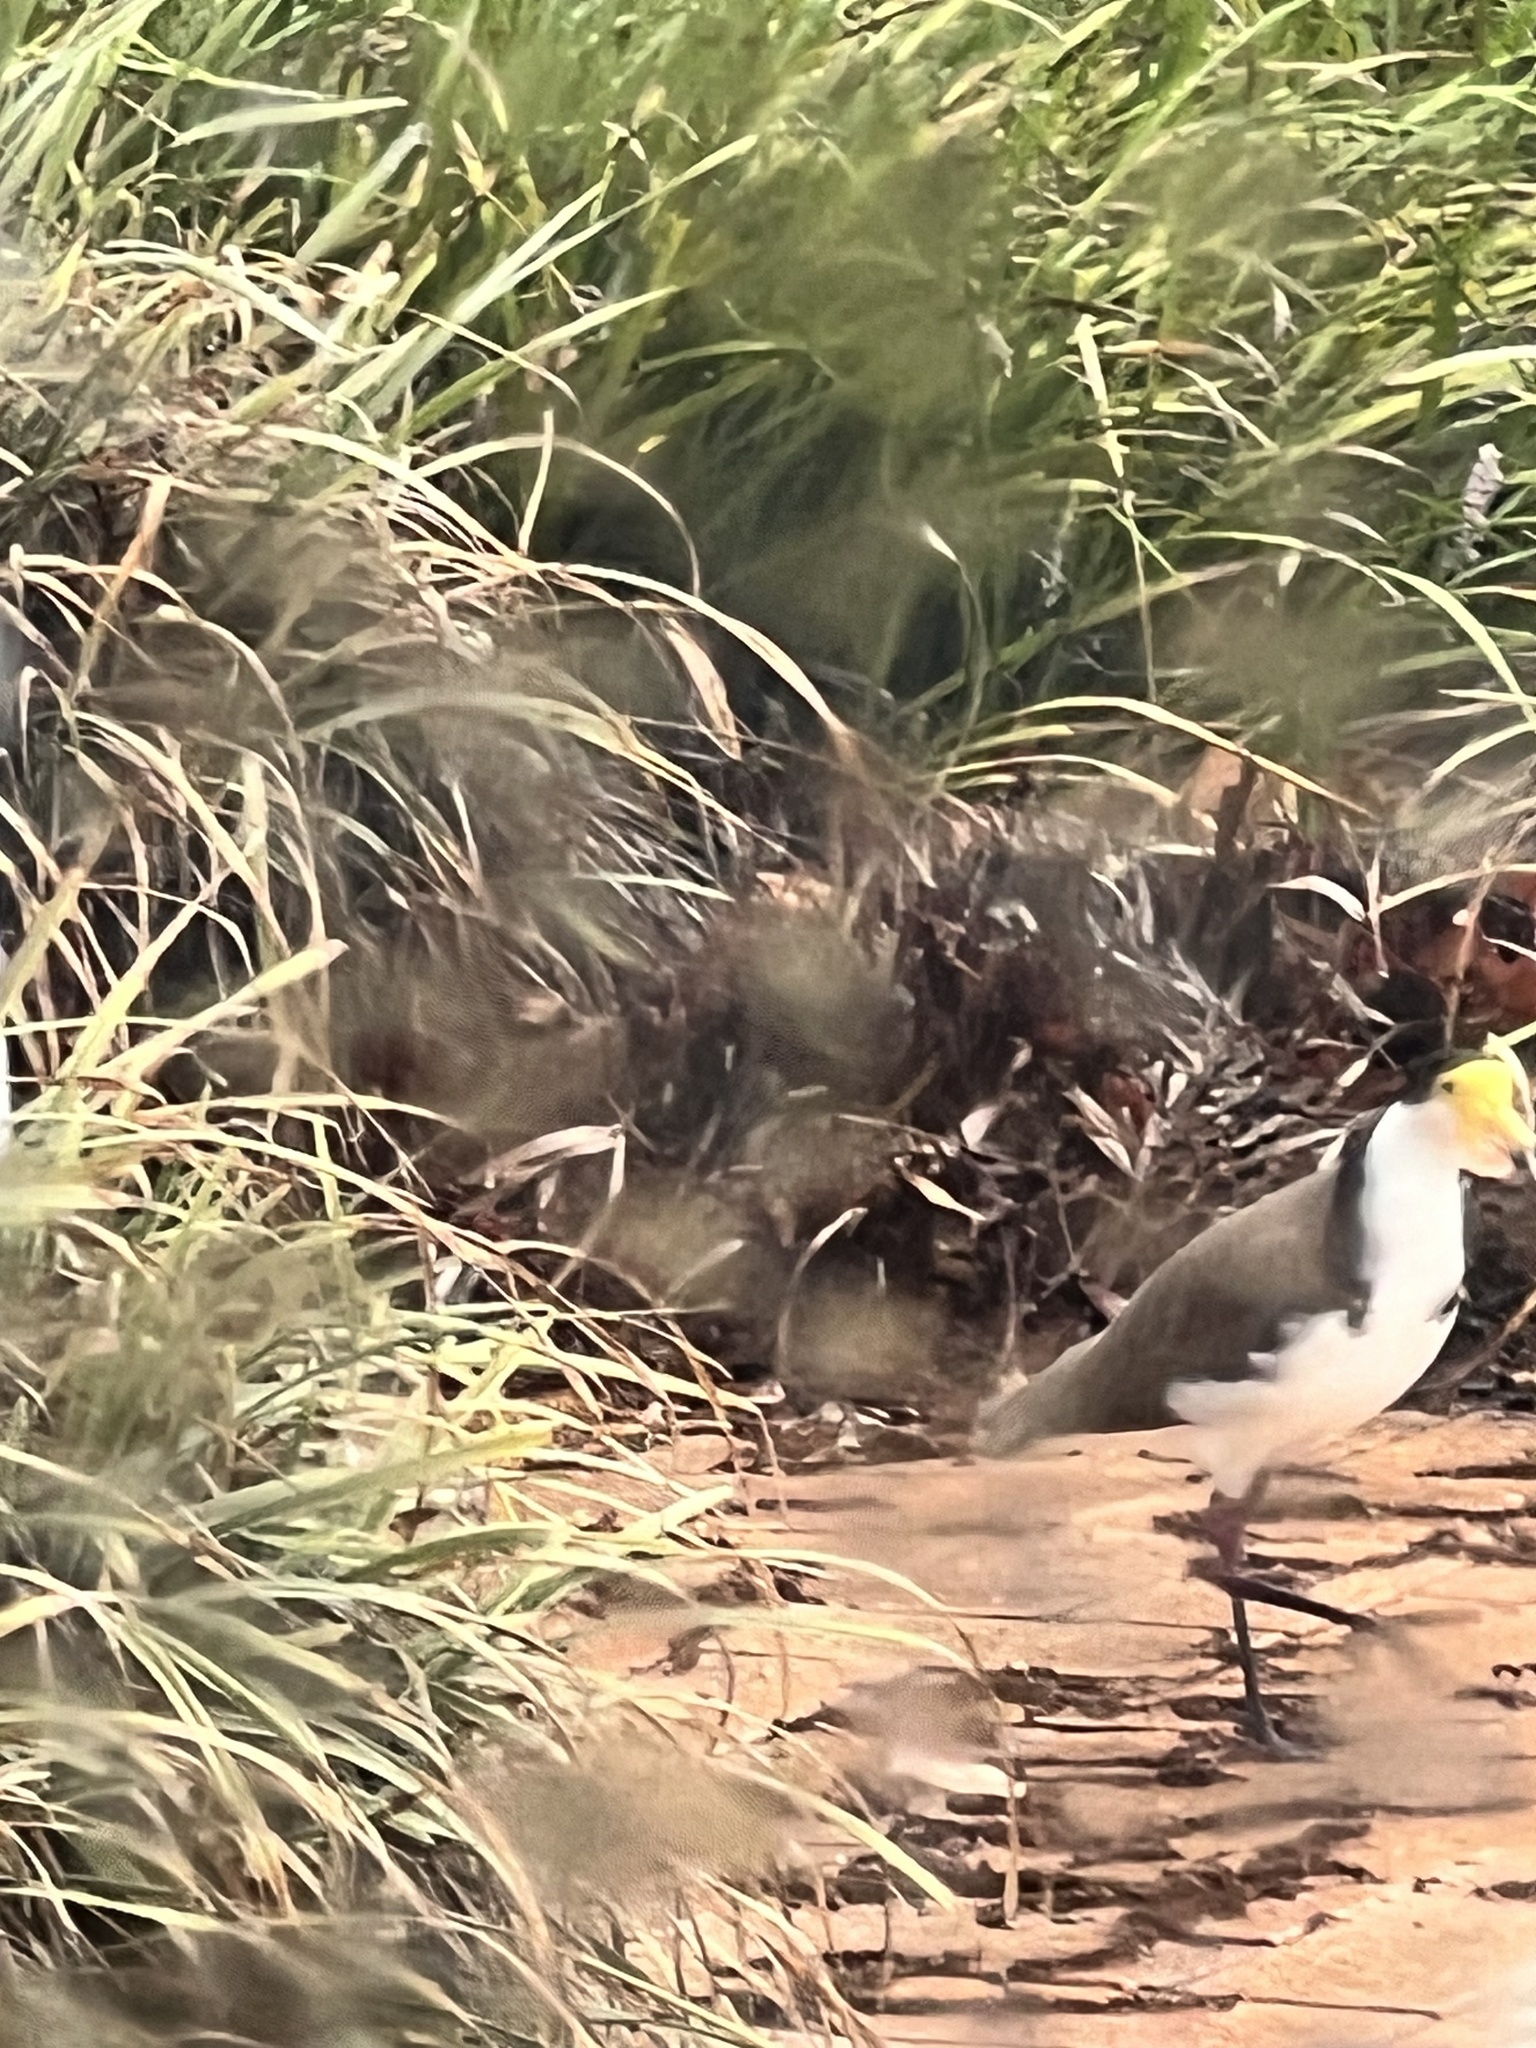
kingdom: Animalia
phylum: Chordata
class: Aves
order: Charadriiformes
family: Charadriidae
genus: Vanellus
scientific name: Vanellus miles
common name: Masked lapwing
